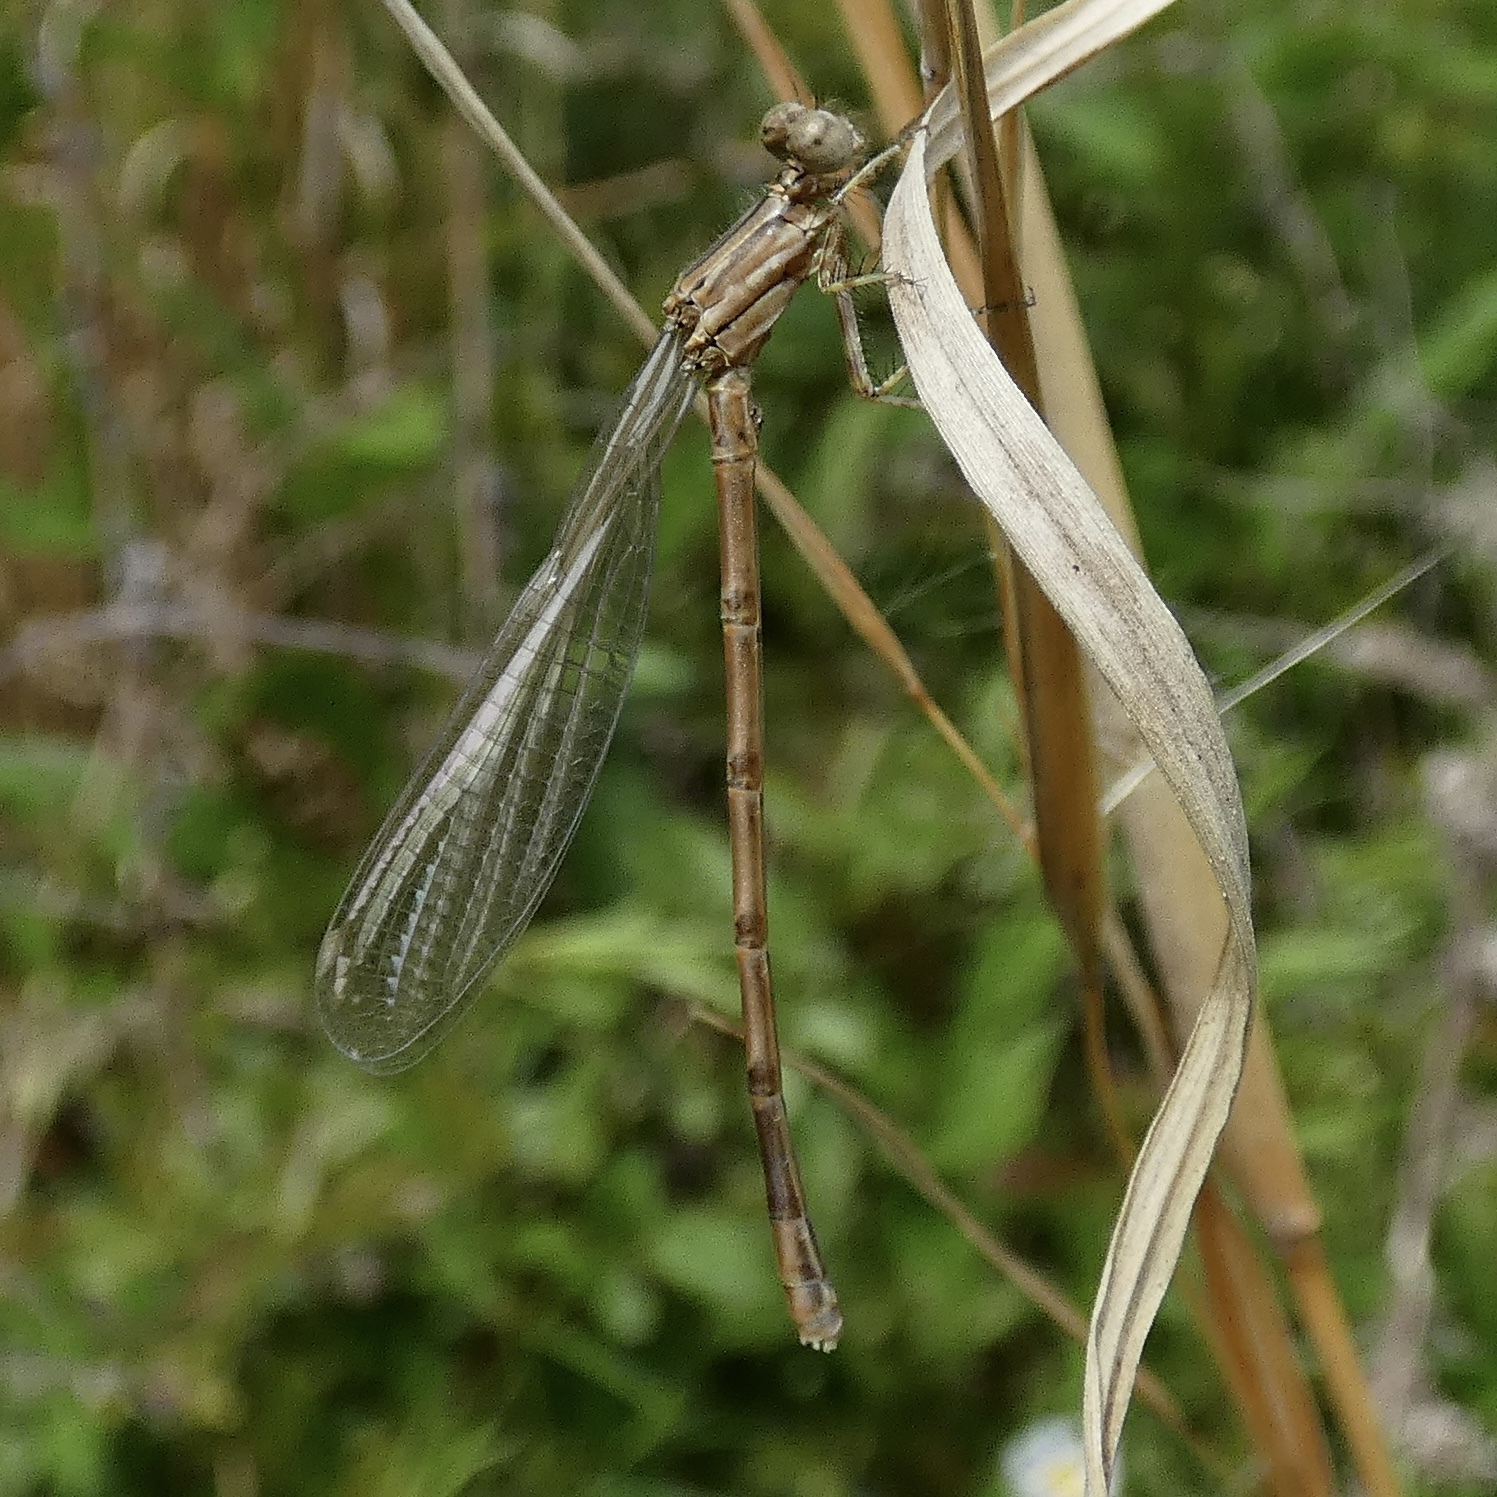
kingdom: Animalia
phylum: Arthropoda
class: Insecta
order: Odonata
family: Coenagrionidae
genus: Argia
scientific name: Argia fumipennis
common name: Variable dancer
